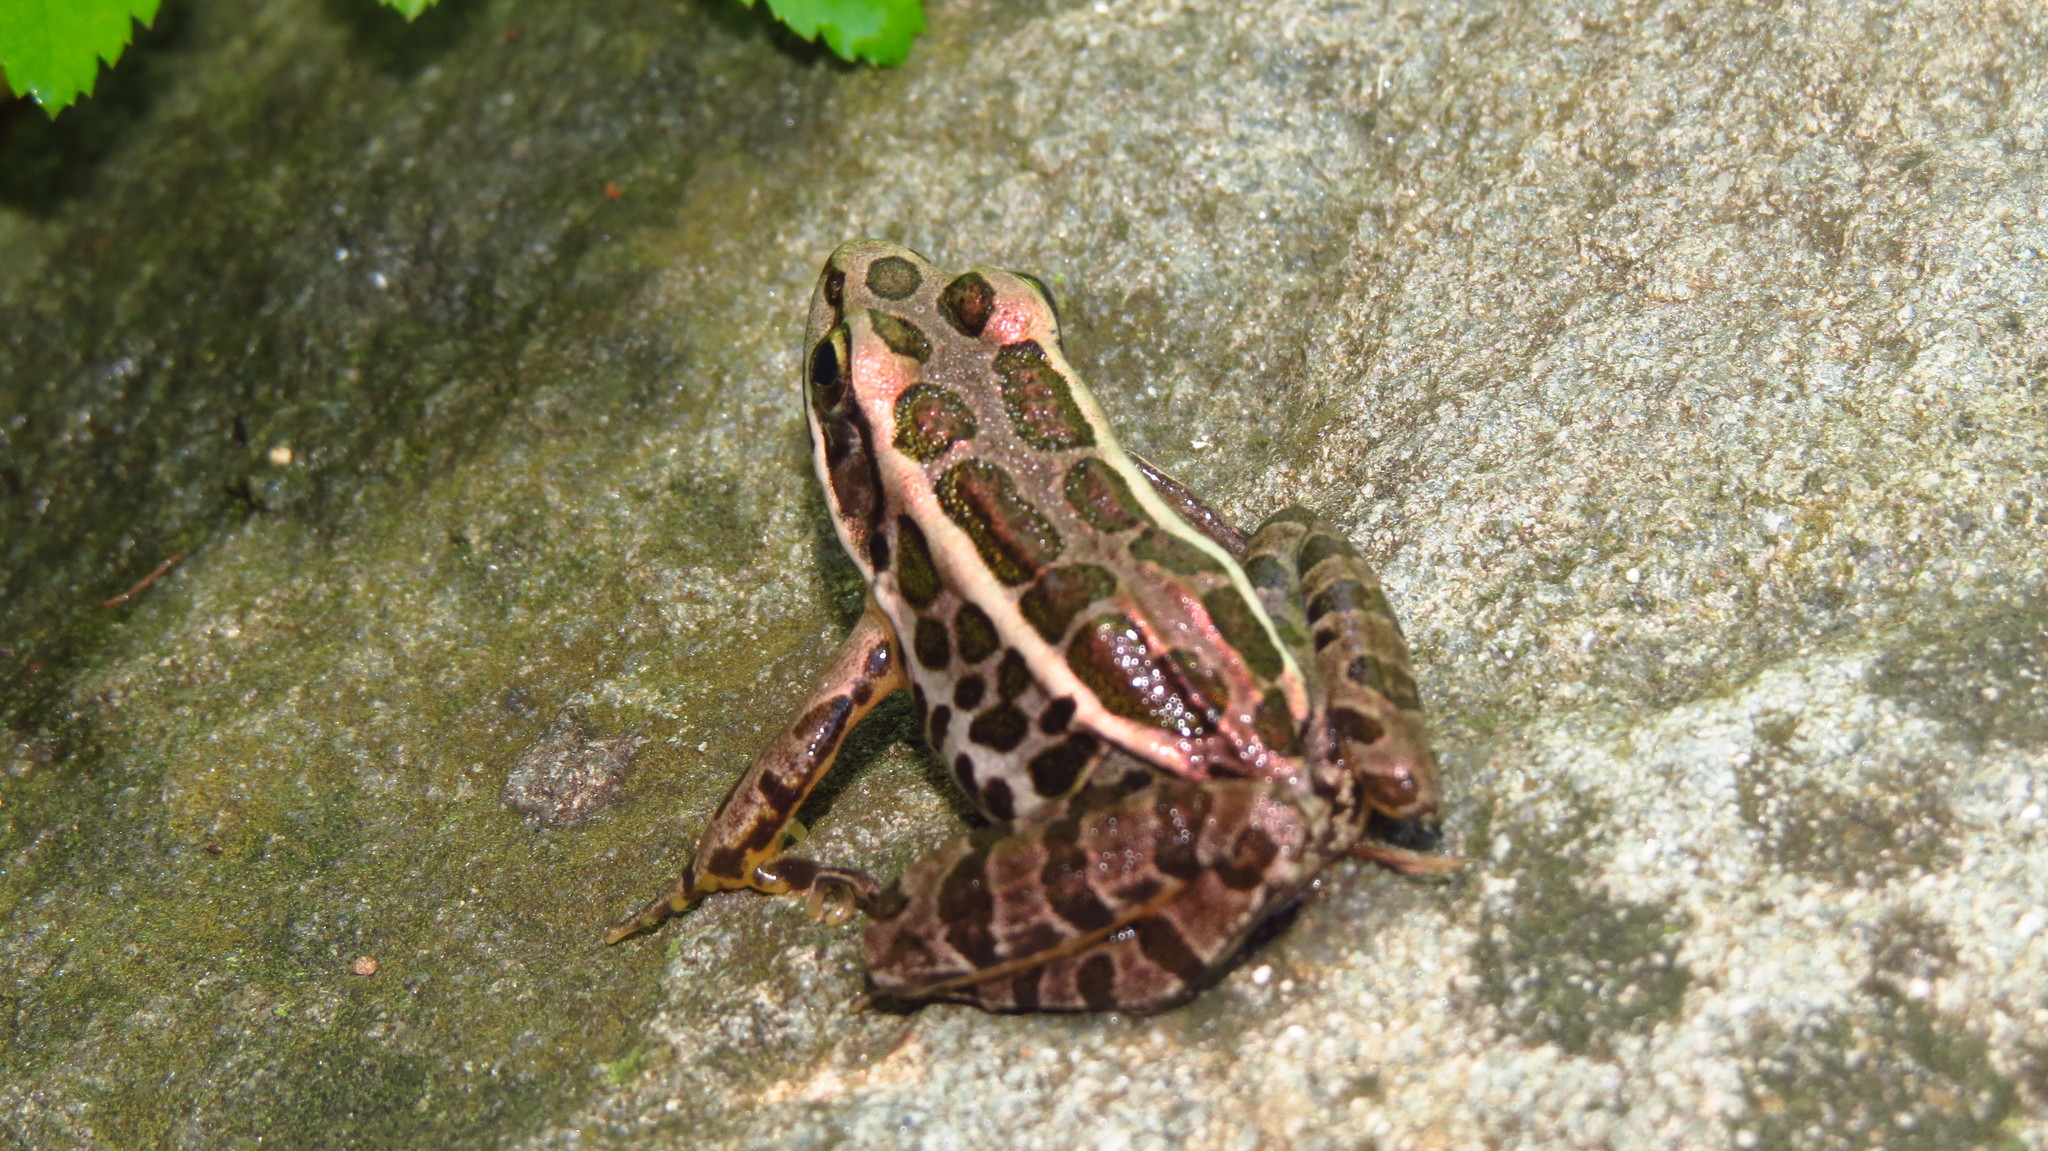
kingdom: Animalia
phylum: Chordata
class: Amphibia
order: Anura
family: Ranidae
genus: Lithobates
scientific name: Lithobates palustris
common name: Pickerel frog
